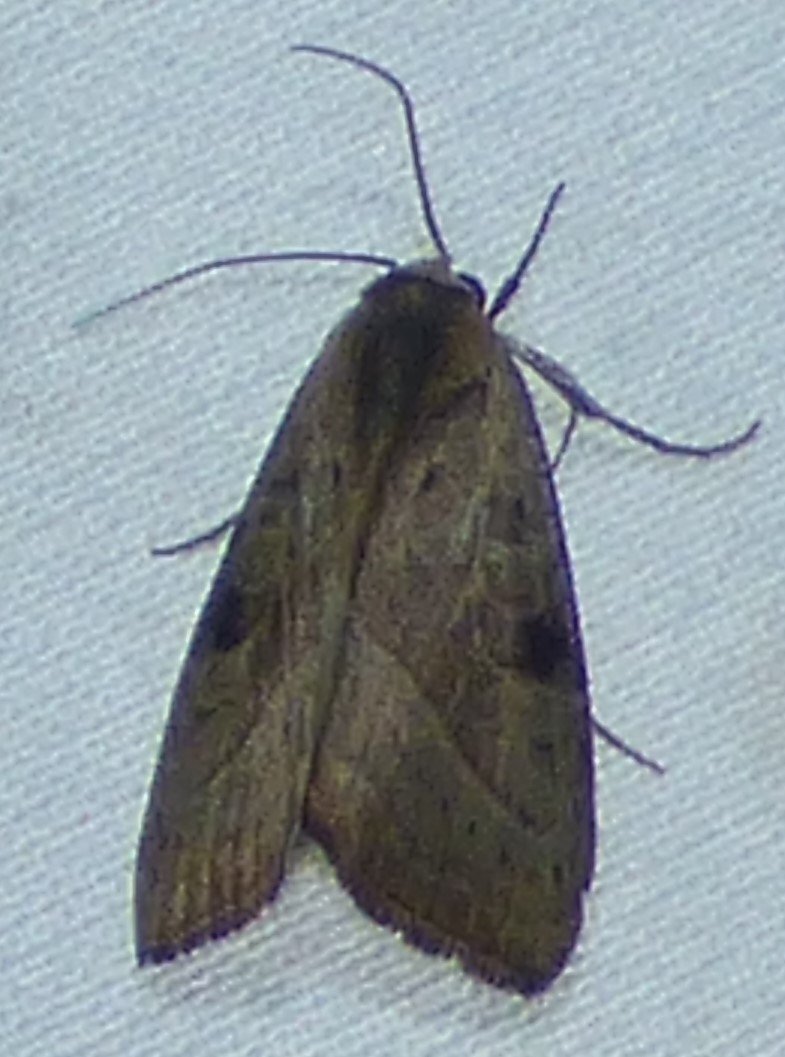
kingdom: Animalia
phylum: Arthropoda
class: Insecta
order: Lepidoptera
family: Noctuidae
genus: Galgula
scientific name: Galgula partita
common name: Wedgeling
